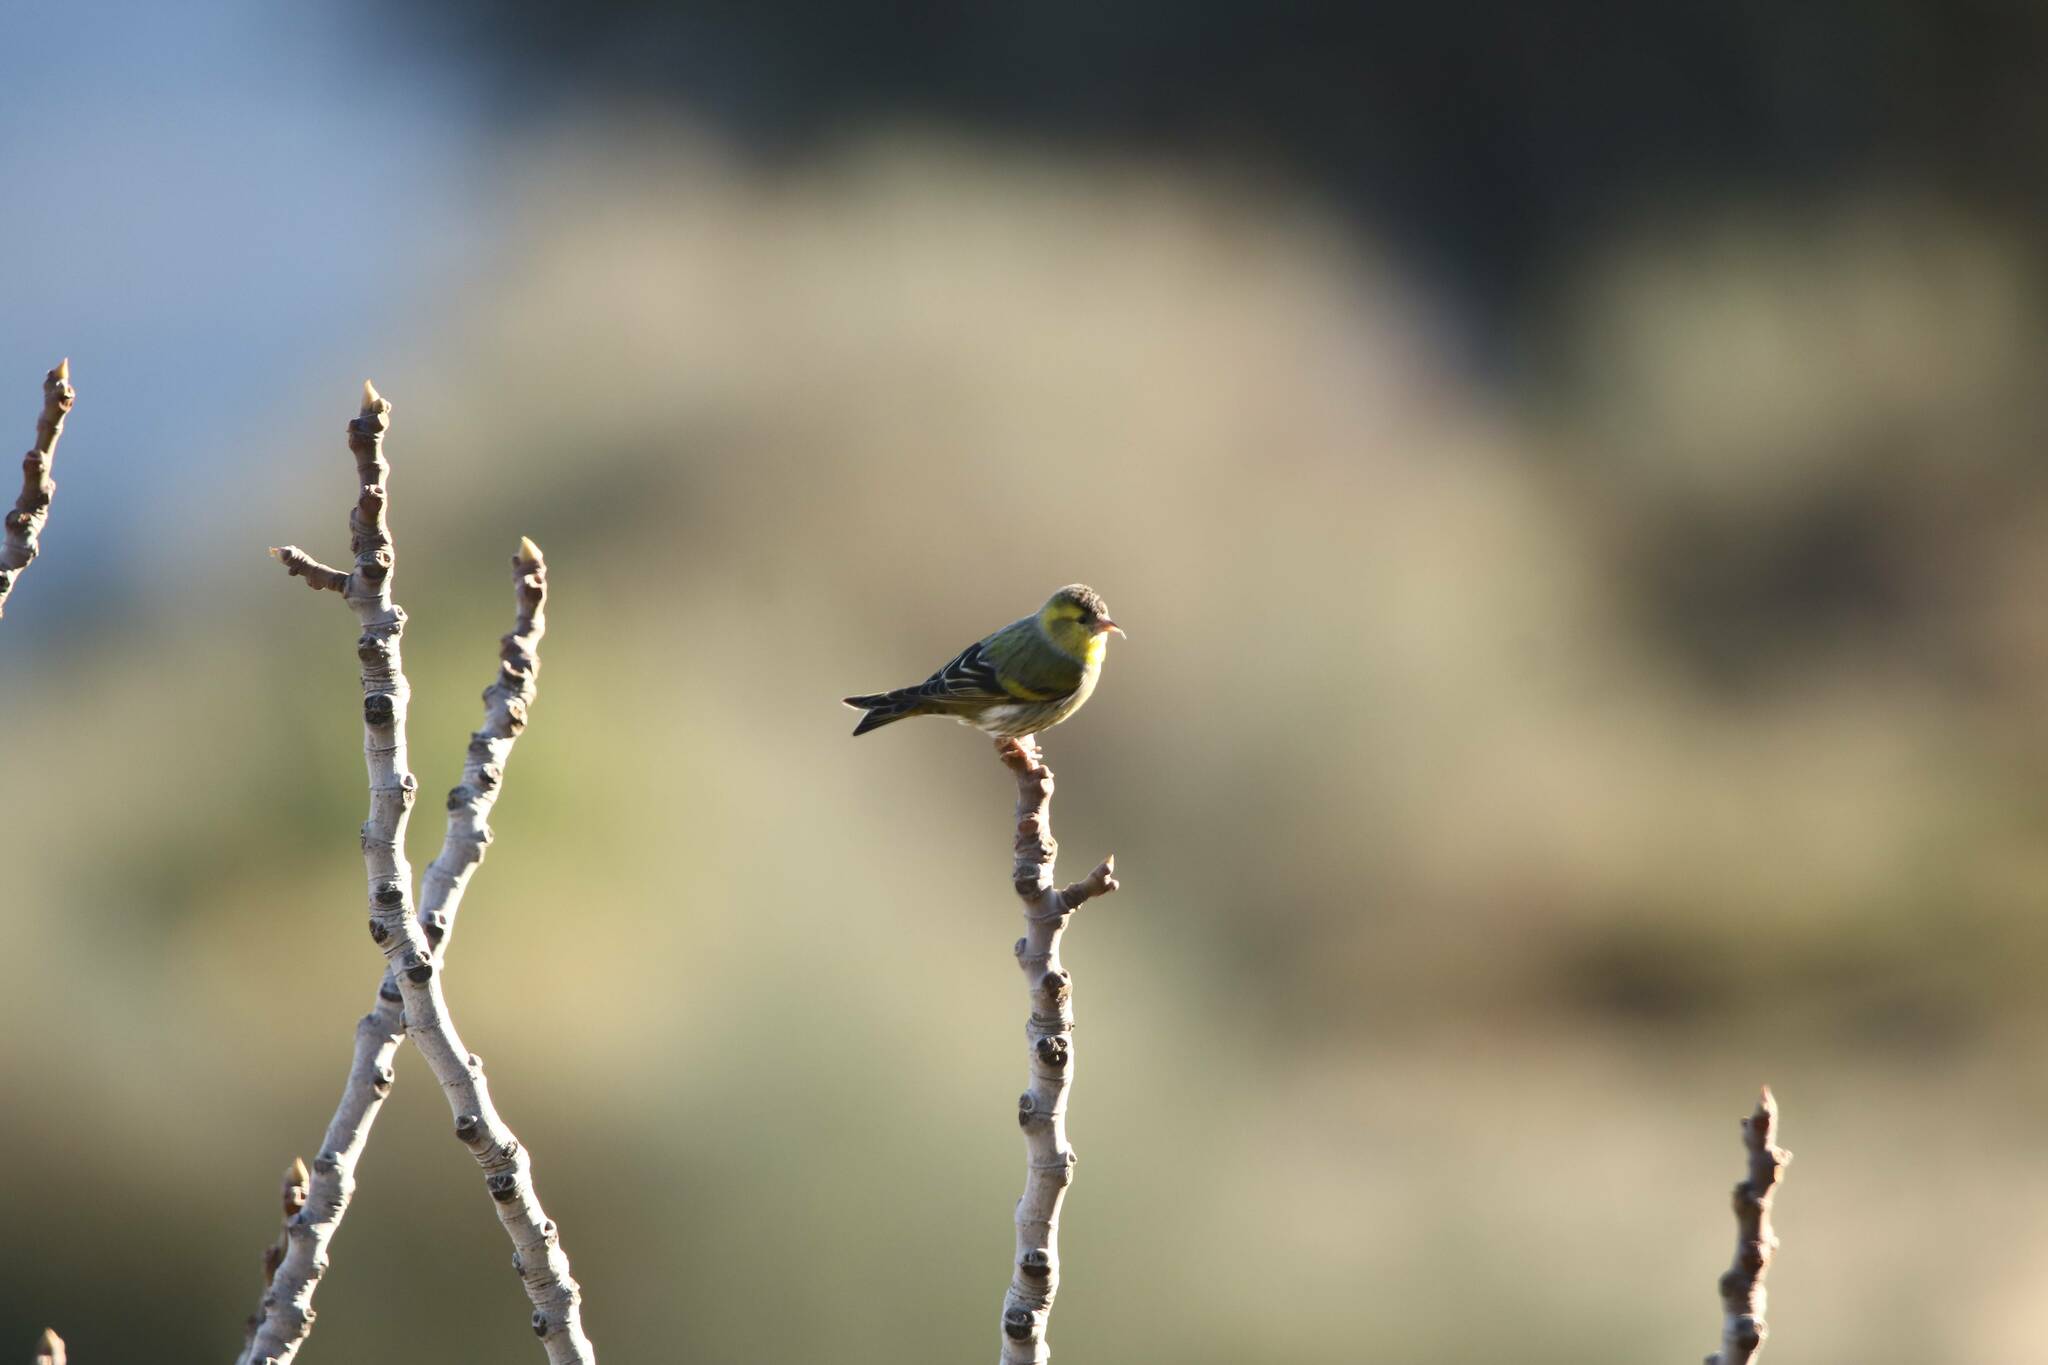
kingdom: Animalia
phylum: Chordata
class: Aves
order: Passeriformes
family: Fringillidae
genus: Serinus
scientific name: Serinus serinus
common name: European serin
